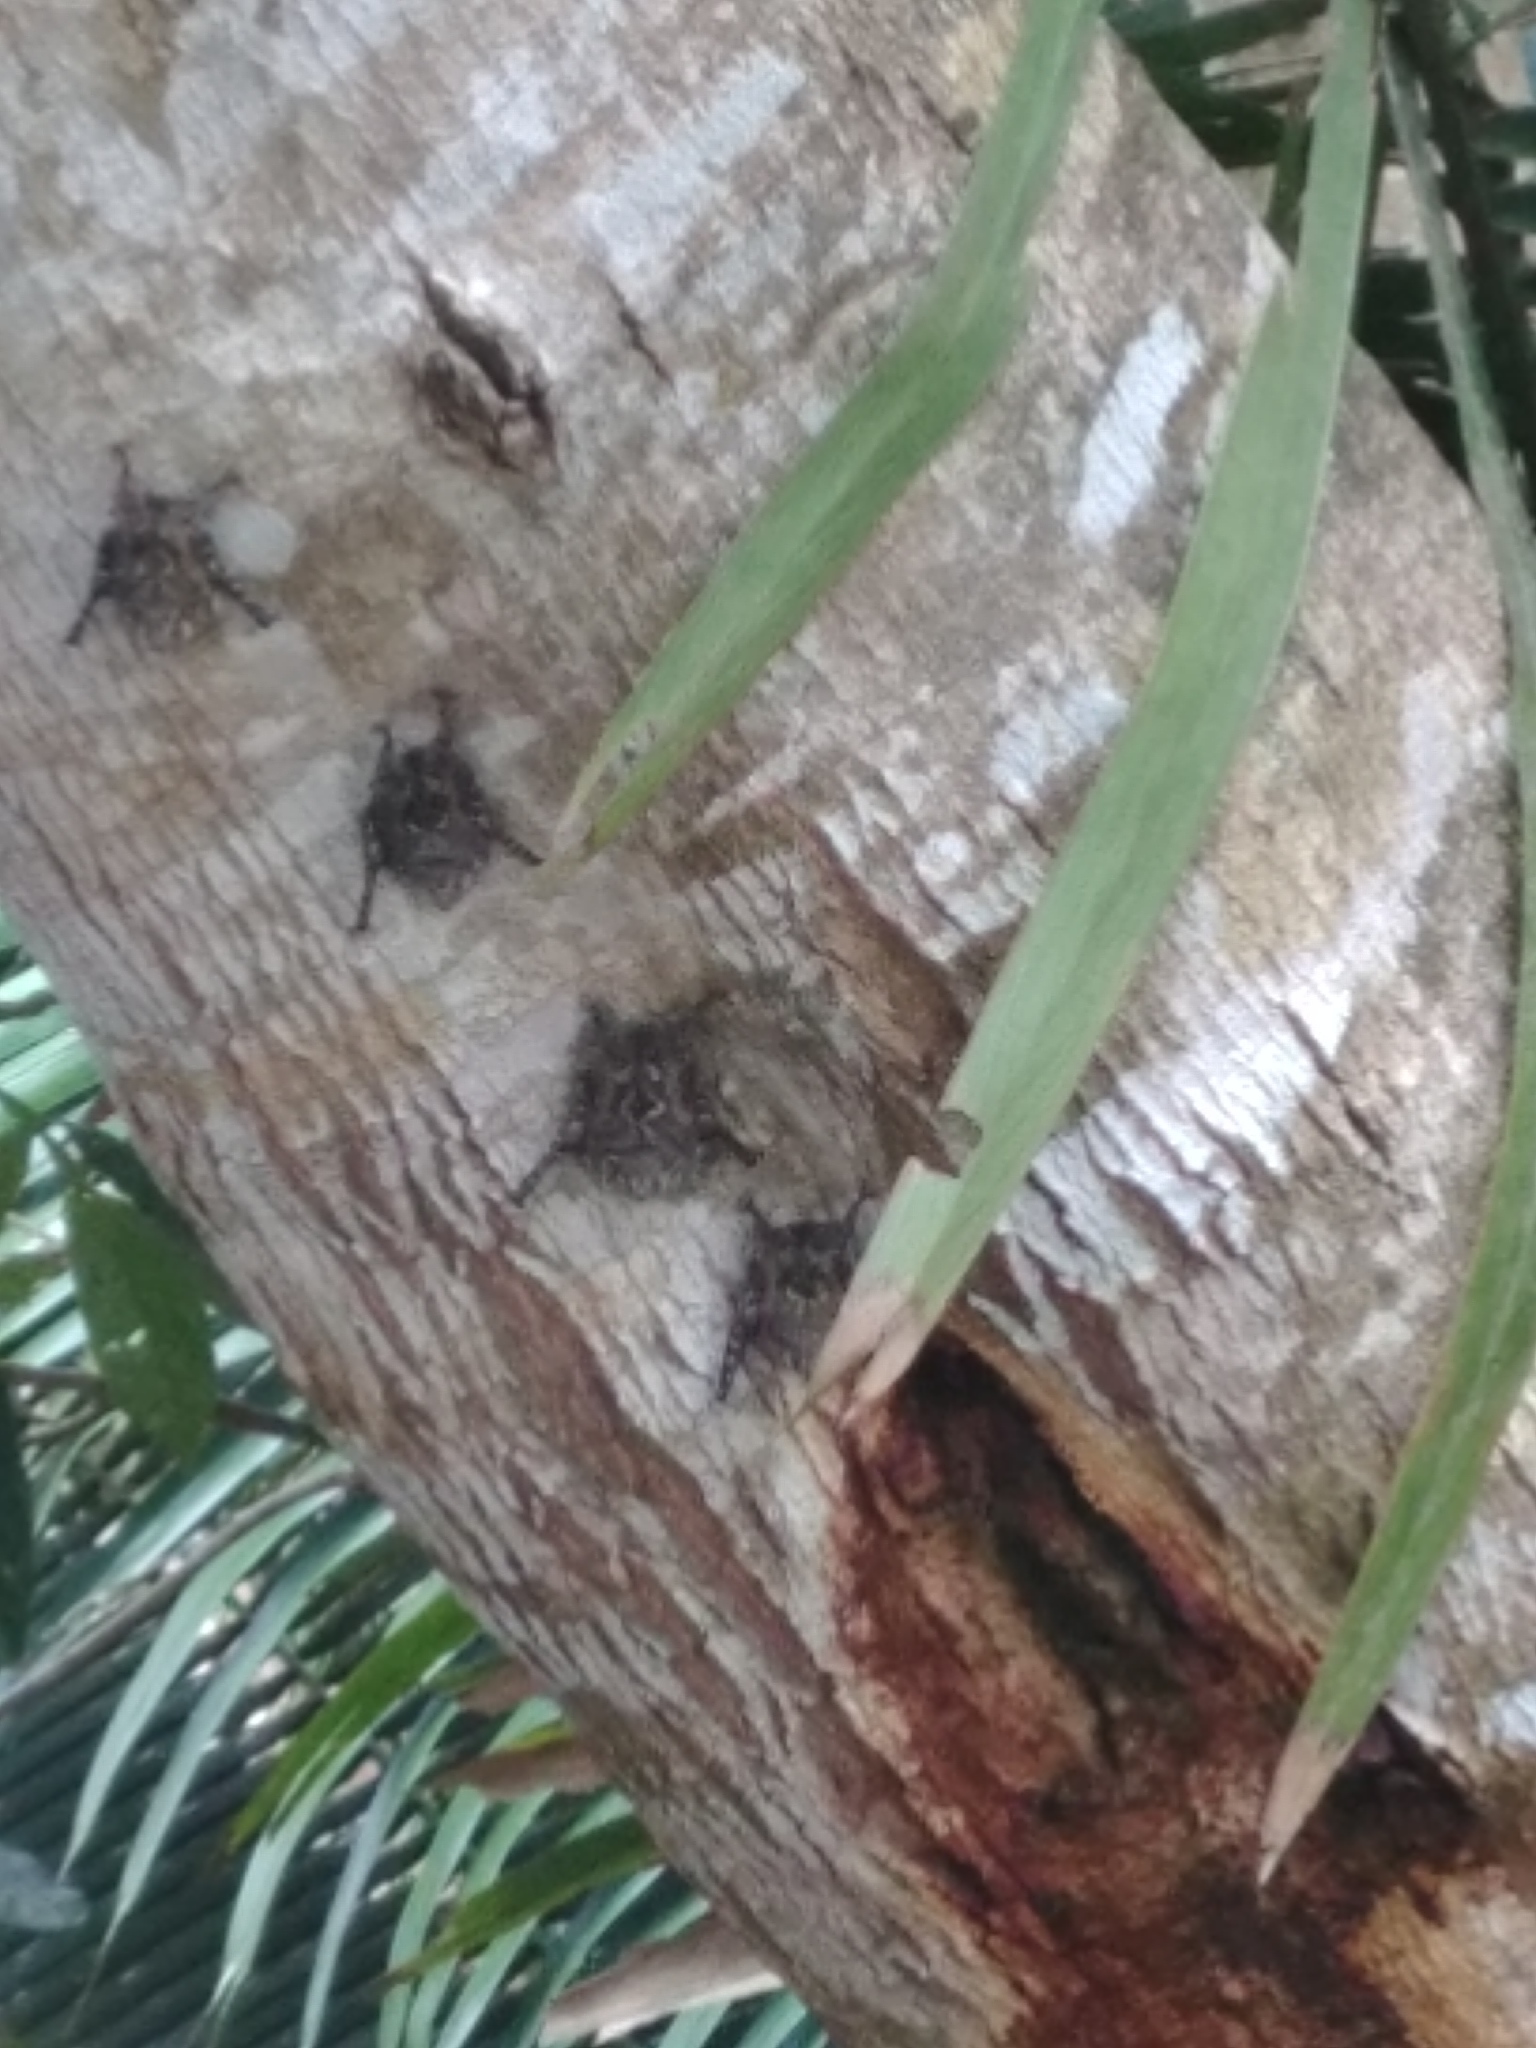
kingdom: Animalia
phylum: Chordata
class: Mammalia
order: Chiroptera
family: Emballonuridae
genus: Rhynchonycteris
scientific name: Rhynchonycteris naso
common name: Proboscis bat
